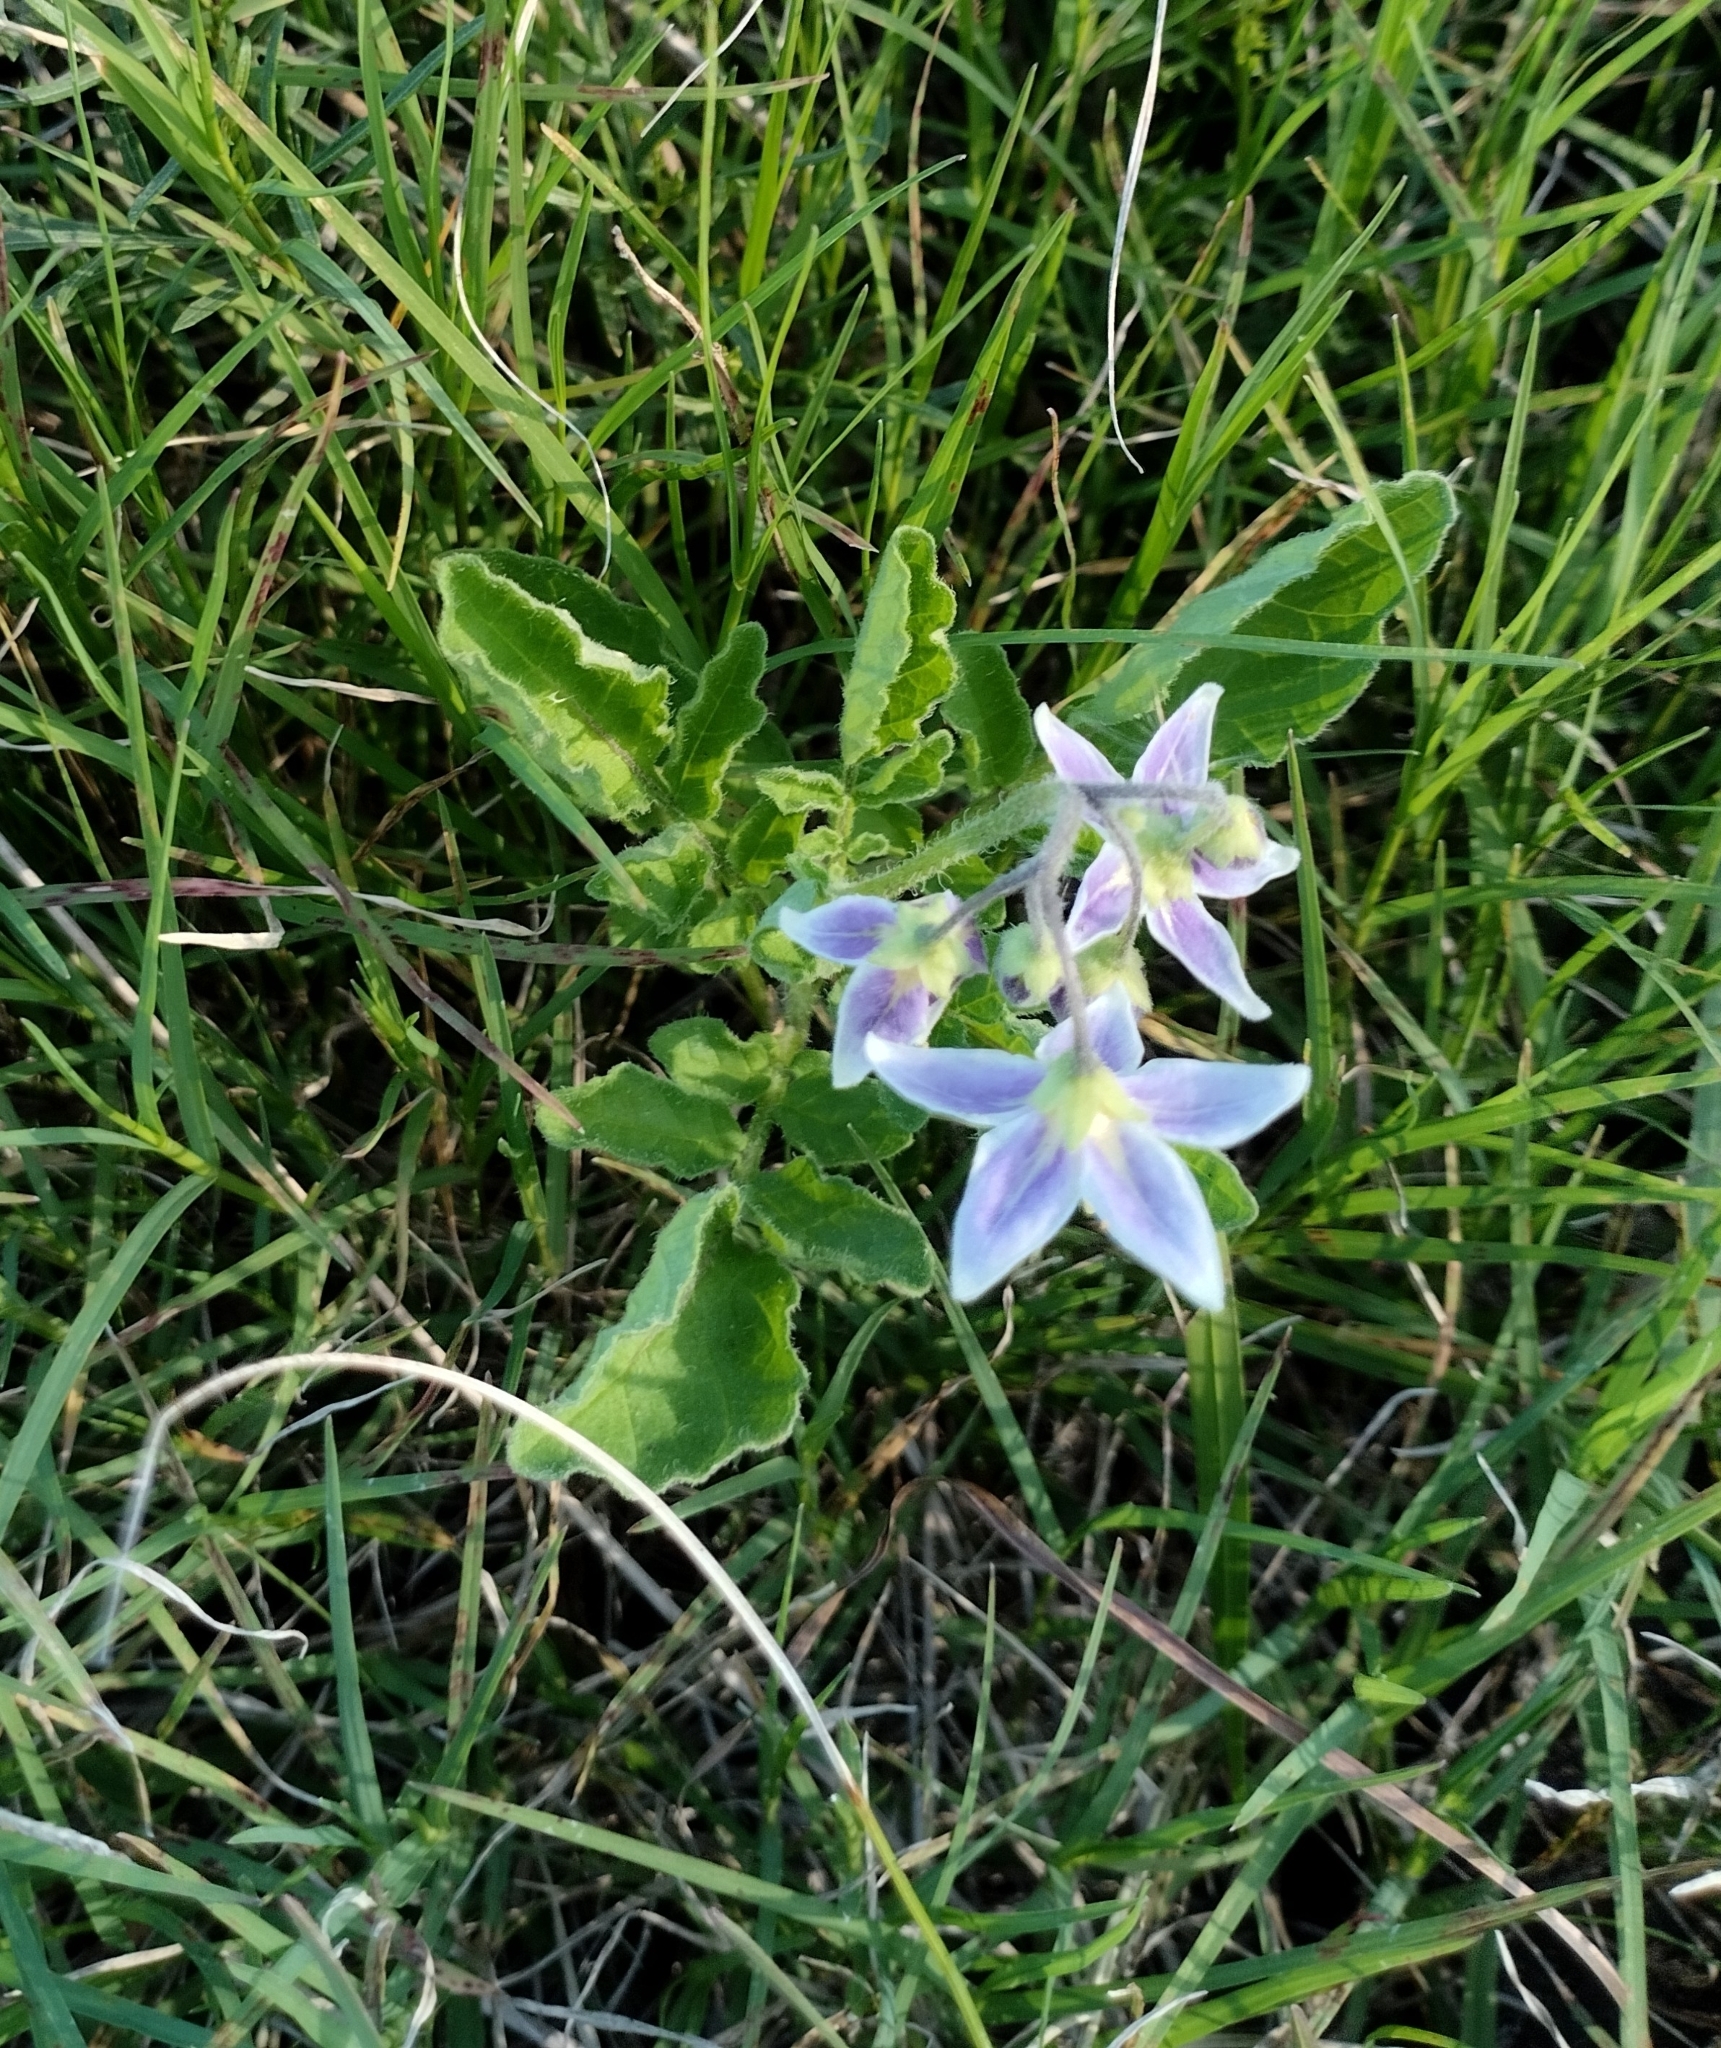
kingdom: Plantae
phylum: Tracheophyta
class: Magnoliopsida
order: Solanales
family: Solanaceae
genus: Solanum
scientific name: Solanum commersonii
